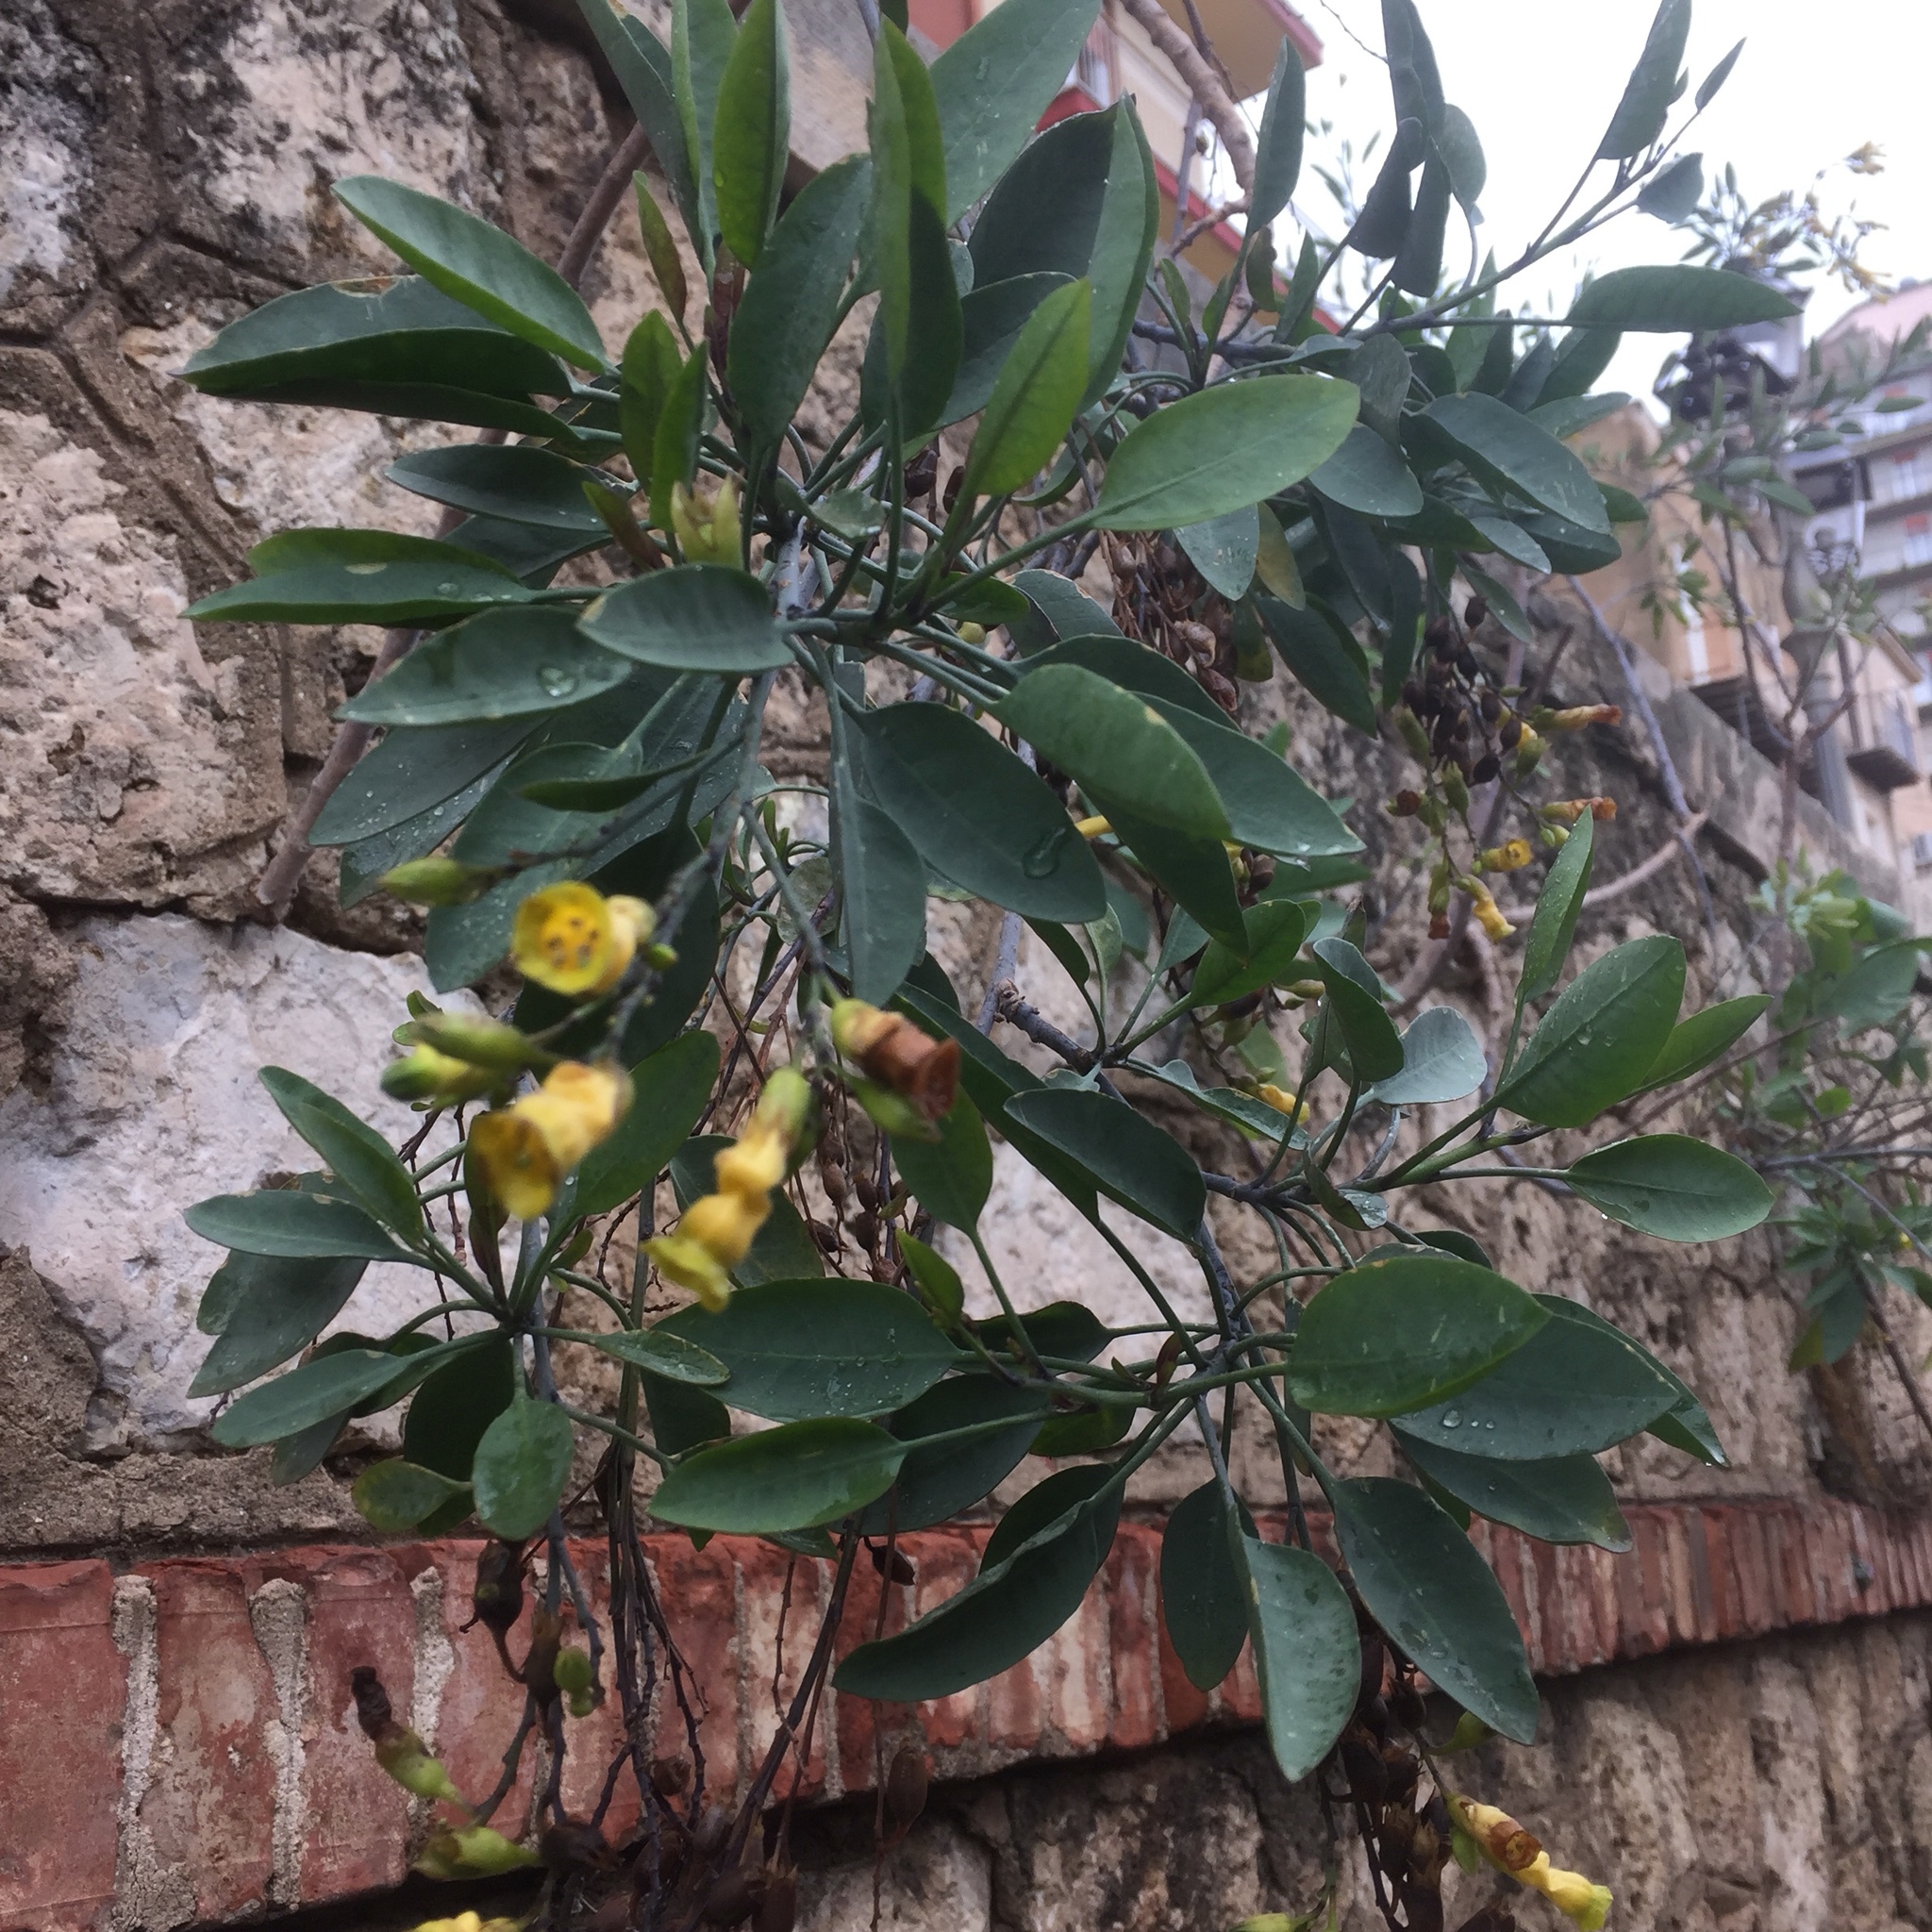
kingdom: Plantae
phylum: Tracheophyta
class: Magnoliopsida
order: Solanales
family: Solanaceae
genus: Nicotiana
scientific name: Nicotiana glauca
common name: Tree tobacco
